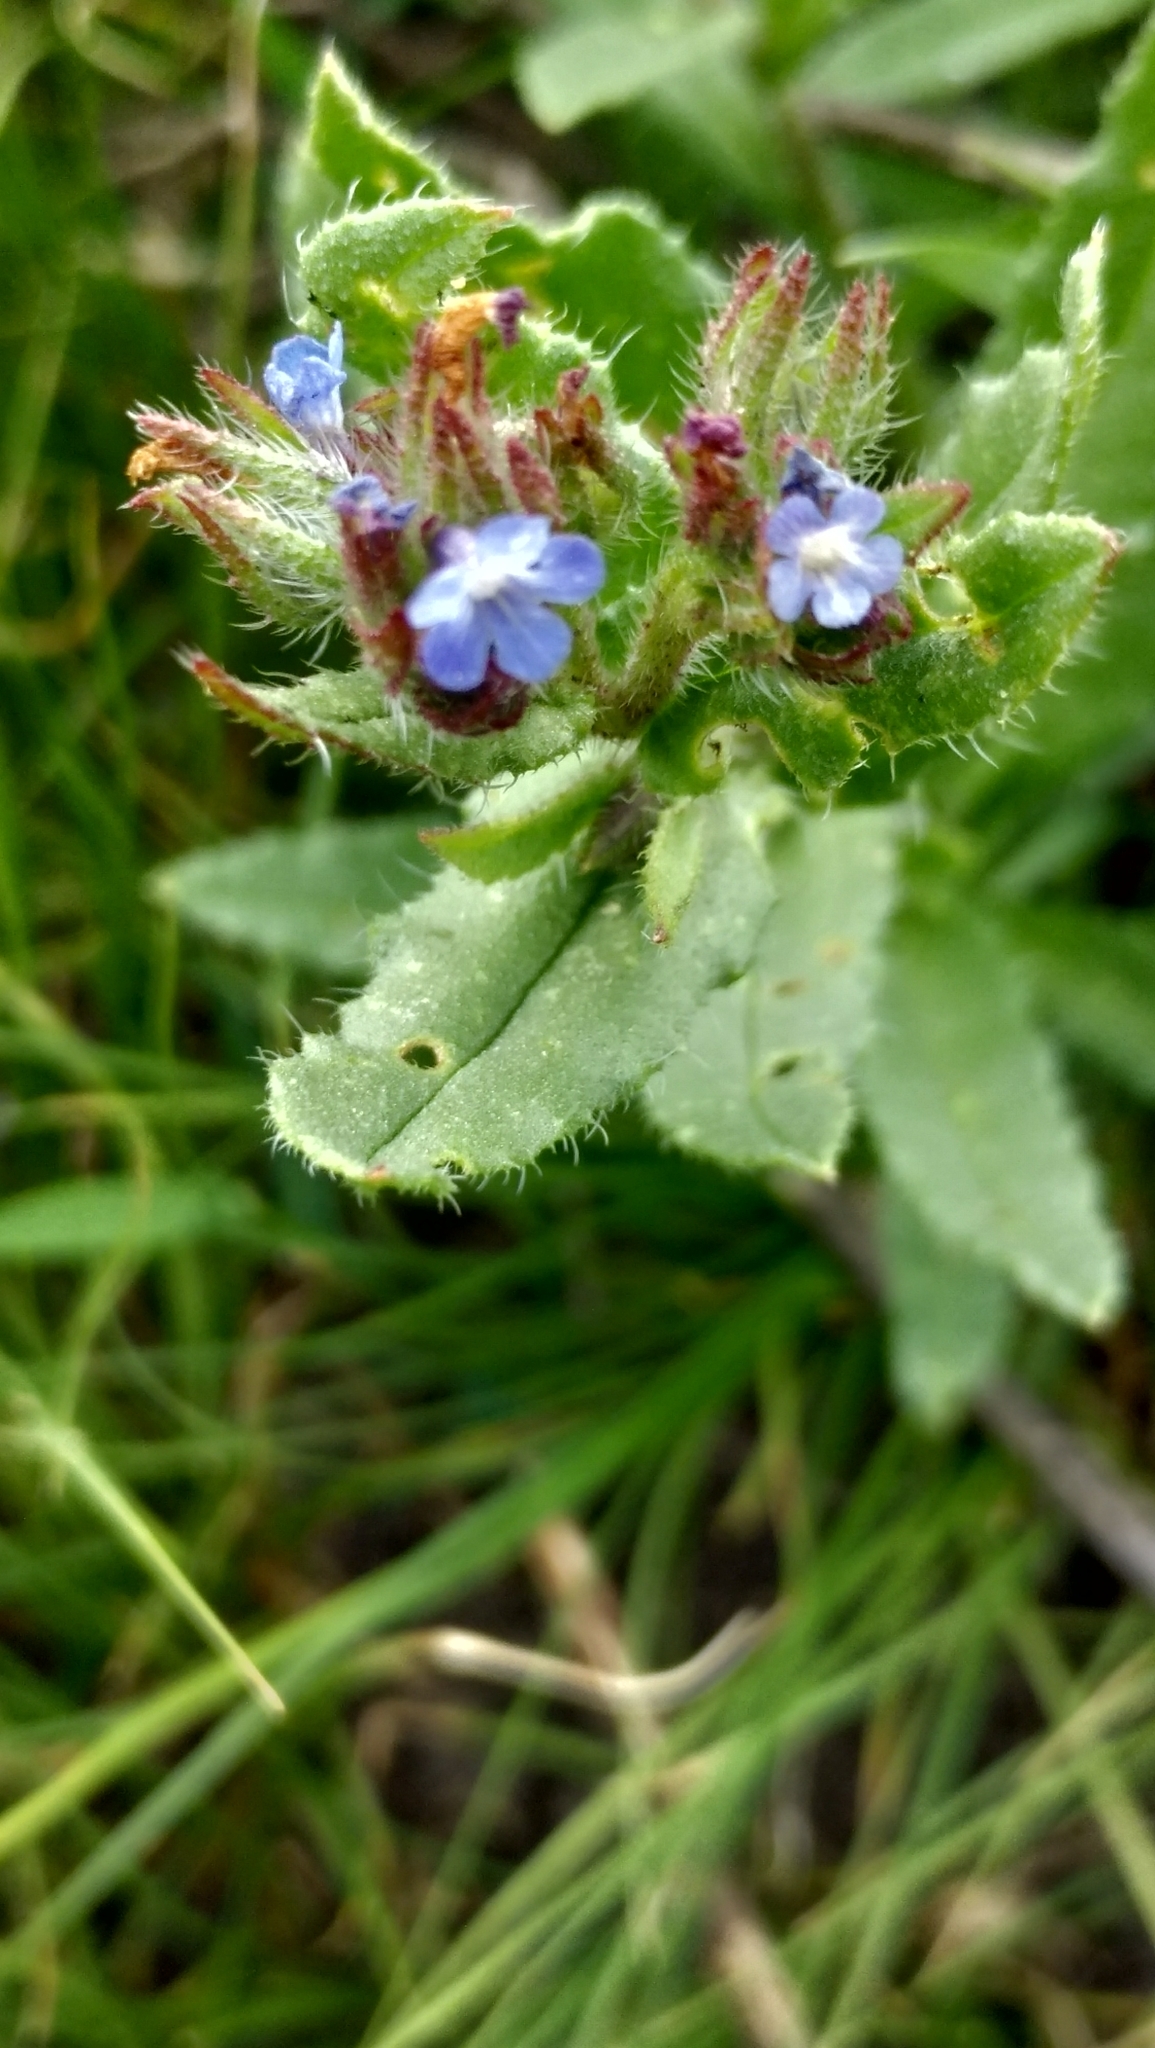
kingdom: Plantae
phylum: Tracheophyta
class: Magnoliopsida
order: Boraginales
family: Boraginaceae
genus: Lycopsis
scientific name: Lycopsis arvensis
